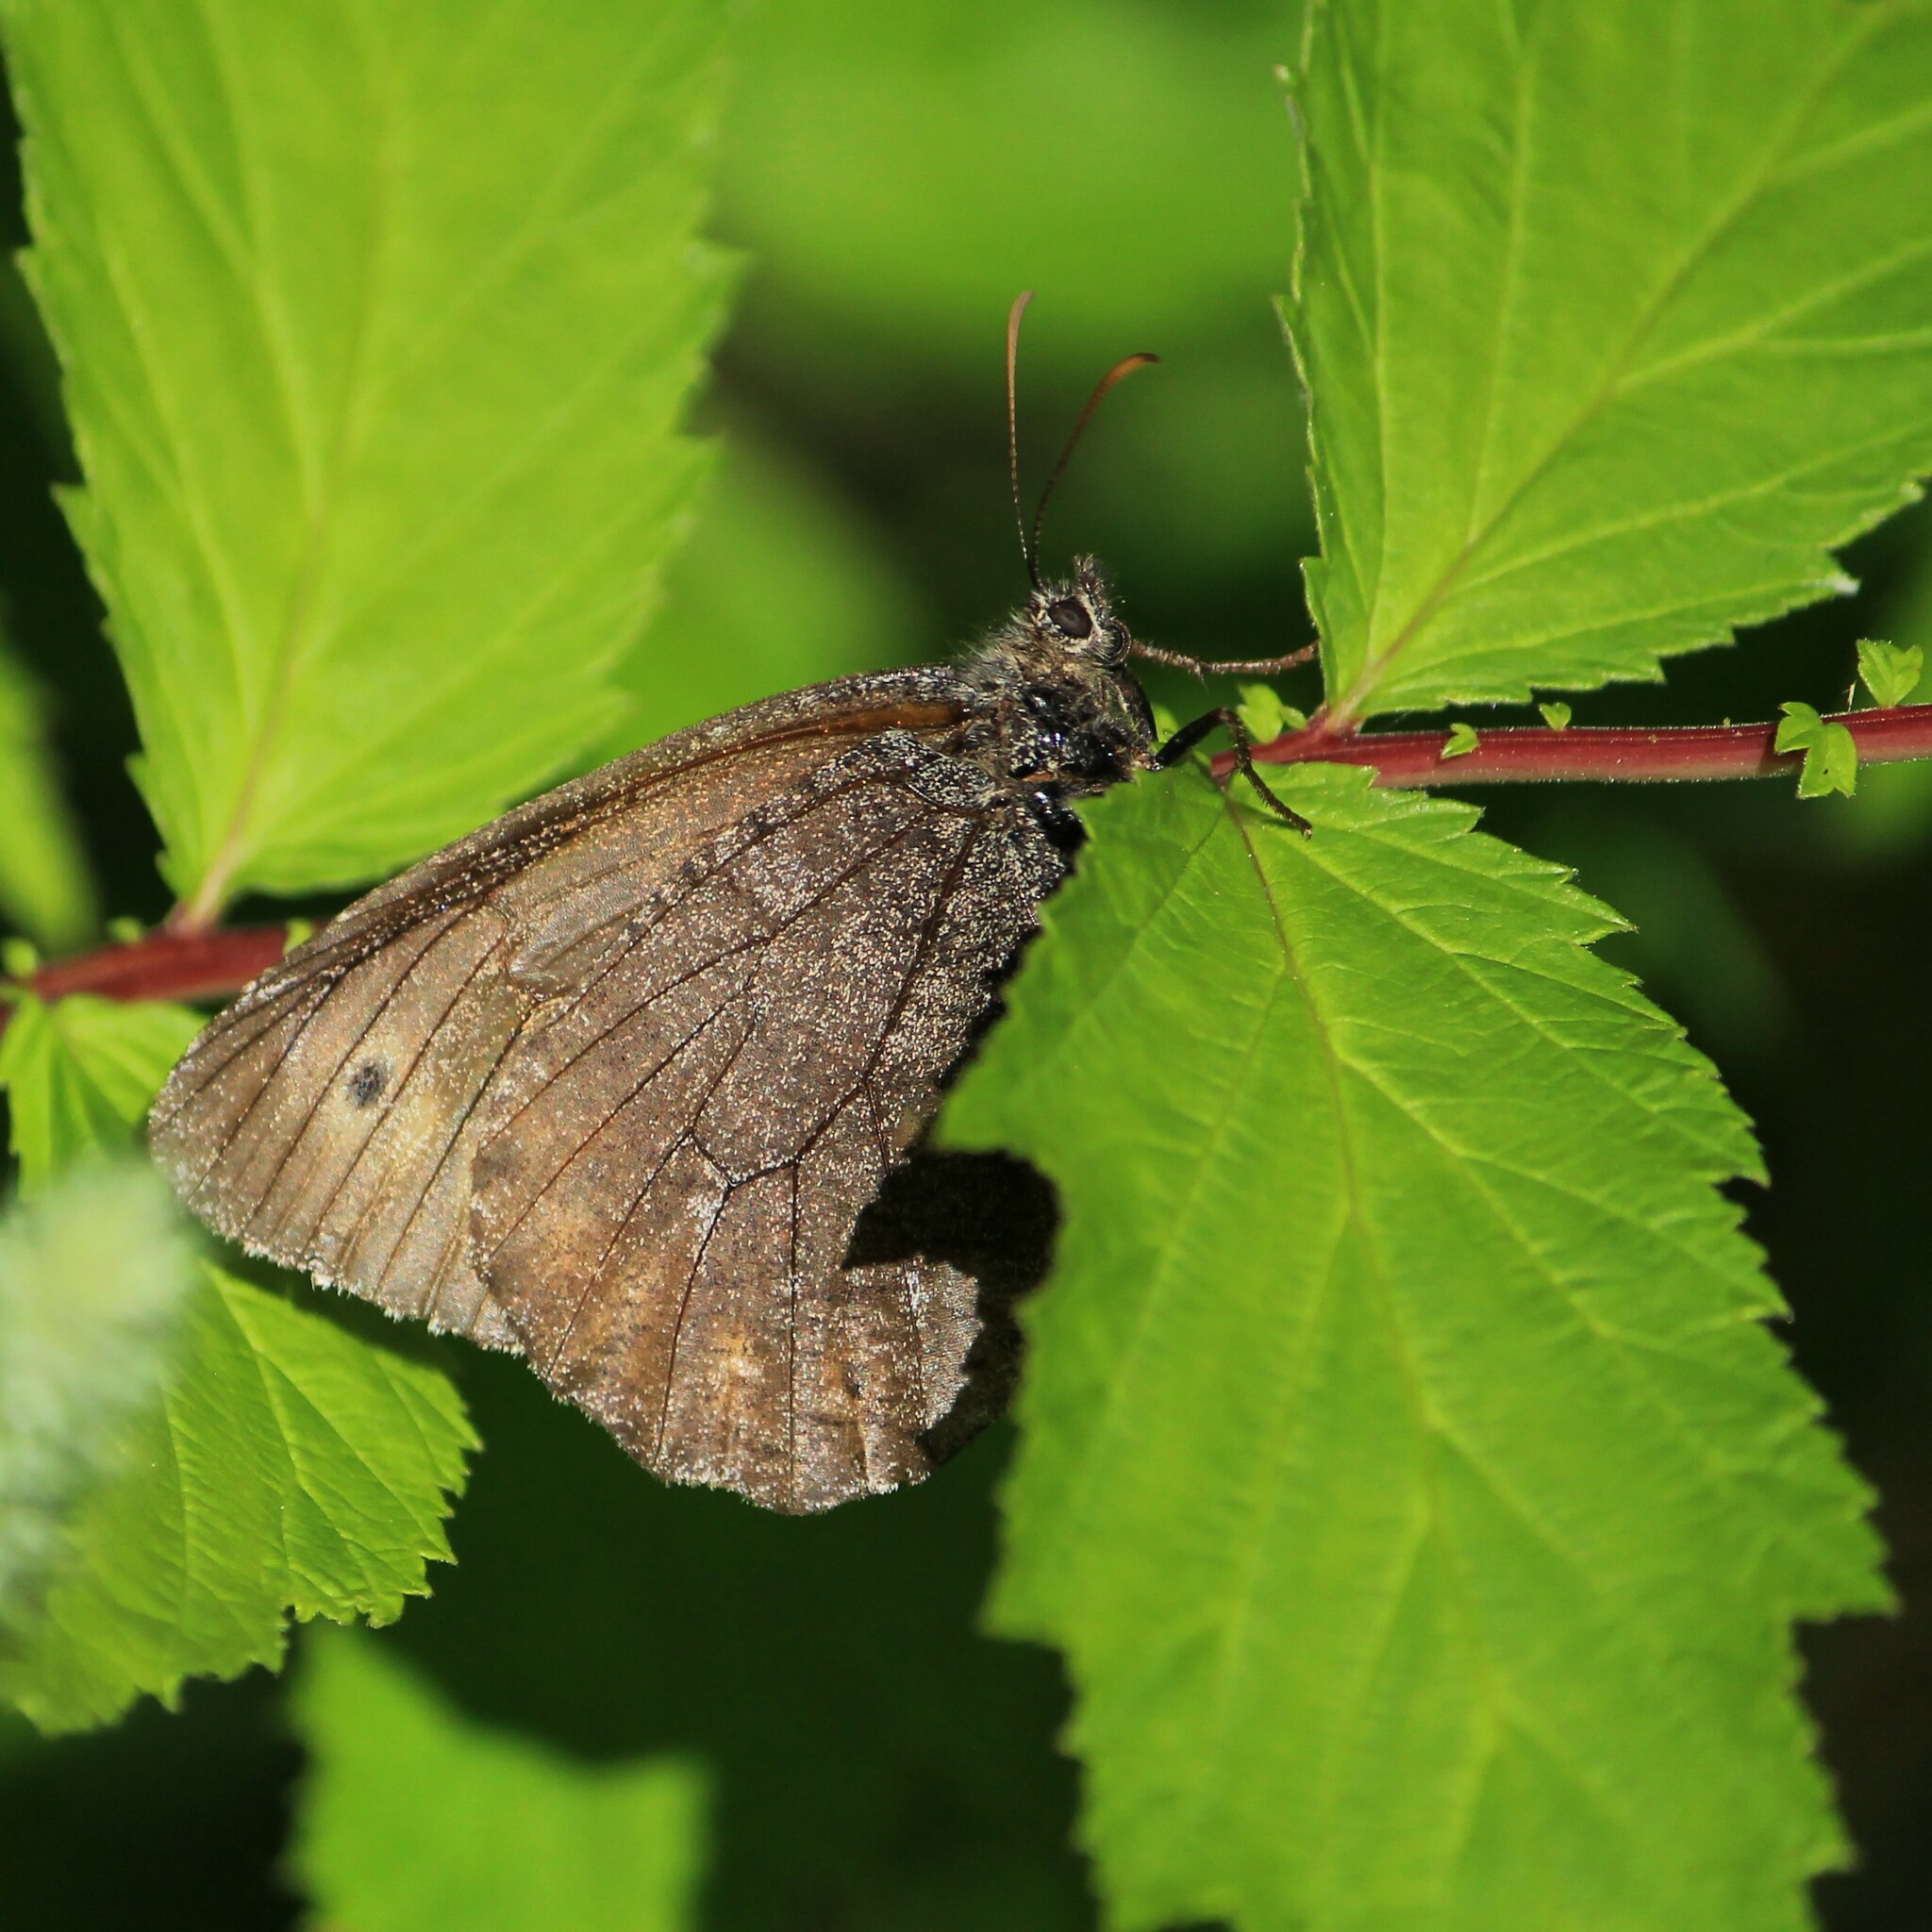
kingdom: Animalia
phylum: Arthropoda
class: Insecta
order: Lepidoptera
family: Nymphalidae
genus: Oeneis
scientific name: Oeneis jutta
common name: Baltic grayling
